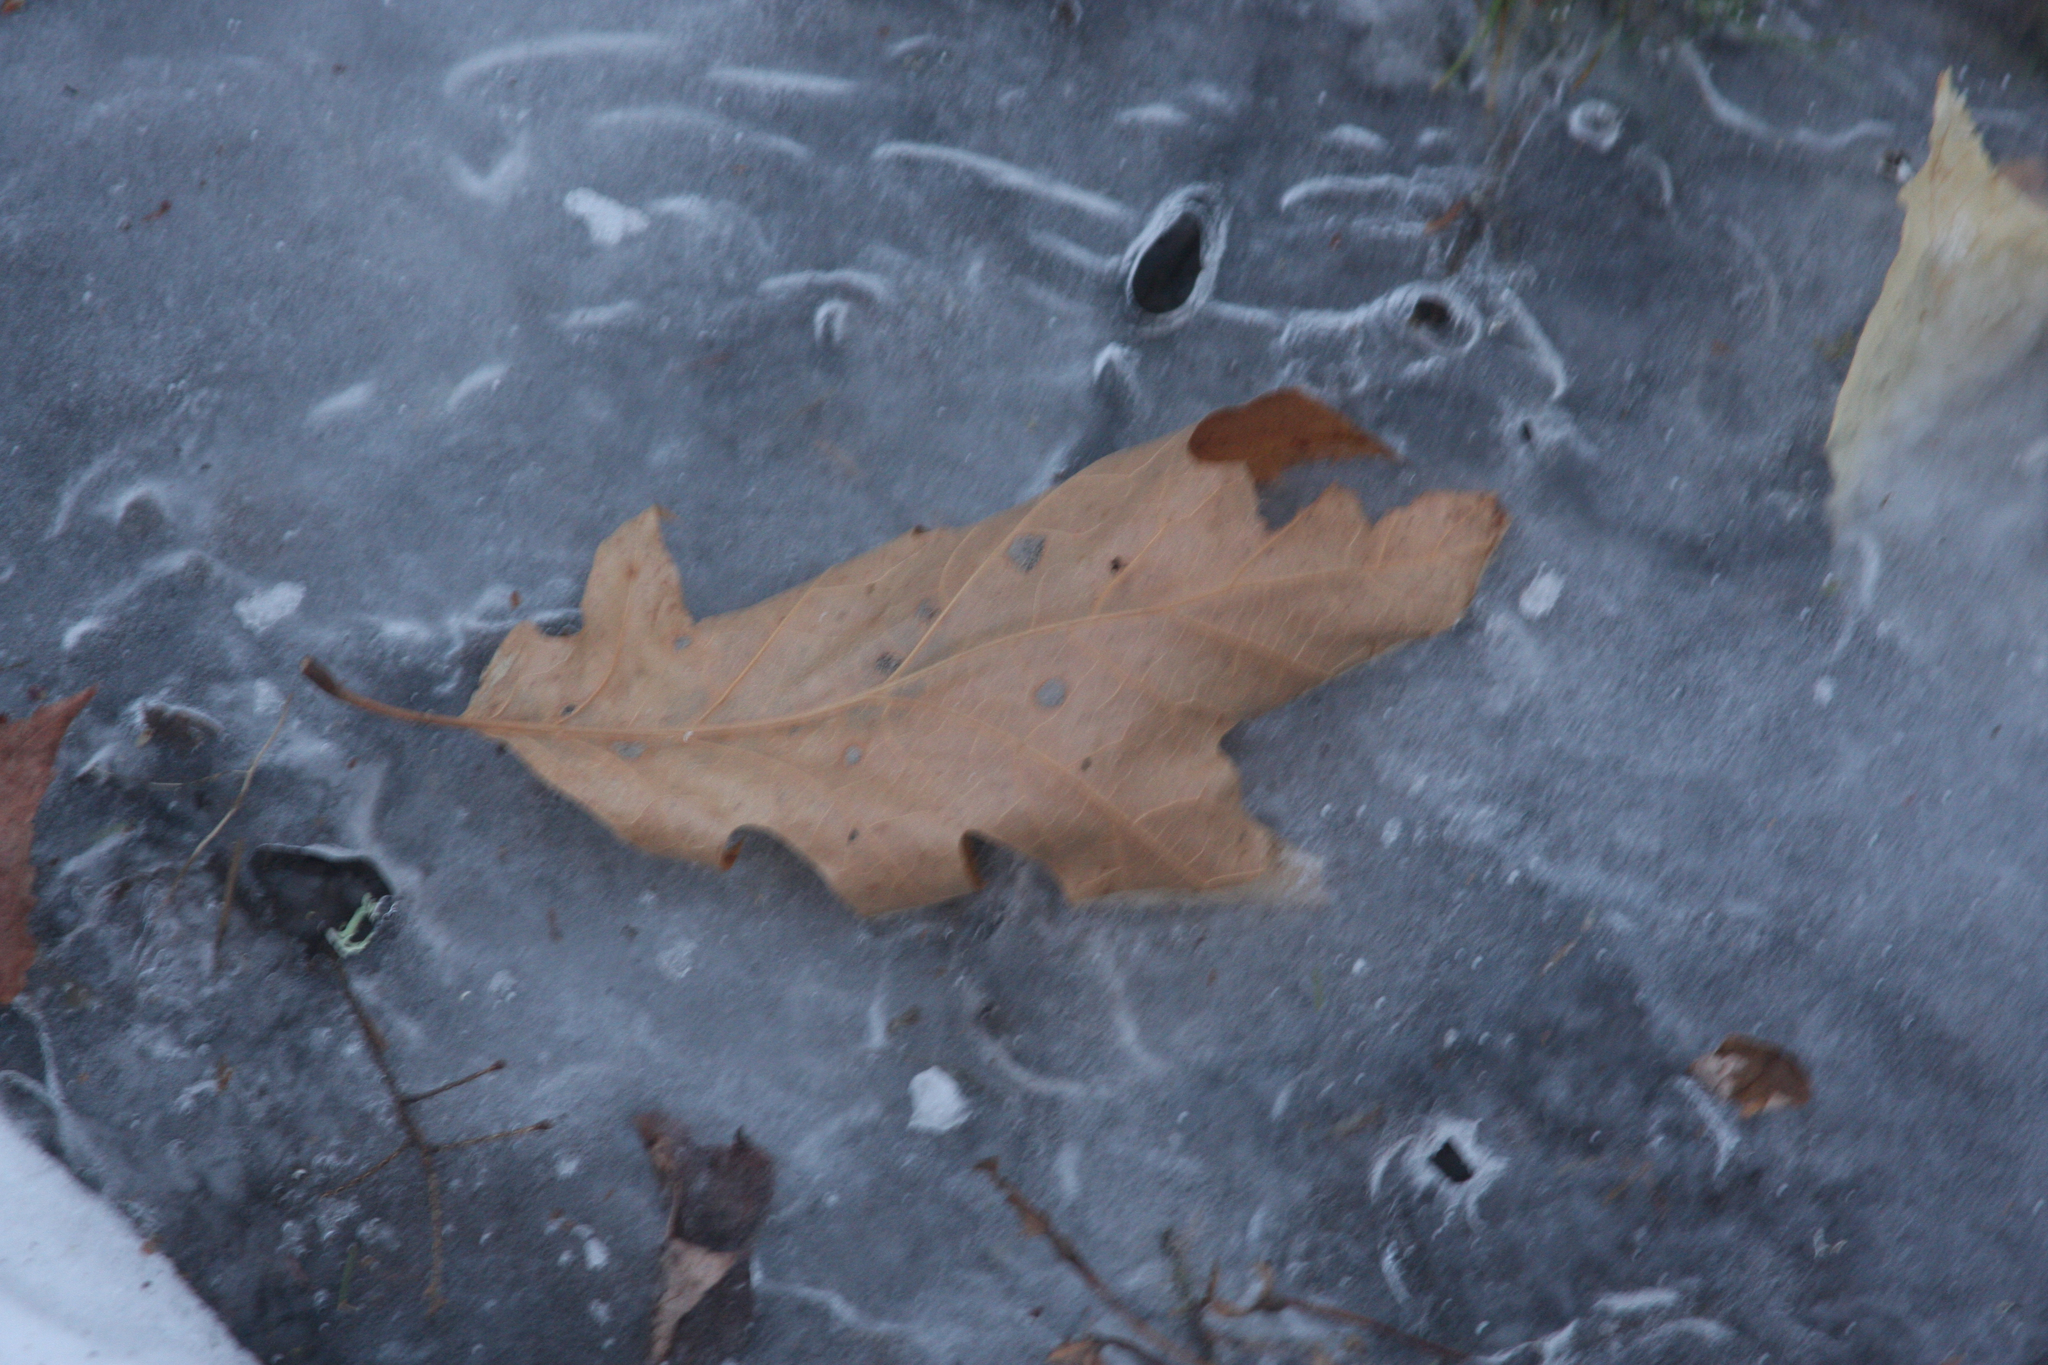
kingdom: Plantae
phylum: Tracheophyta
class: Magnoliopsida
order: Fagales
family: Fagaceae
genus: Quercus
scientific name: Quercus rubra
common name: Red oak
